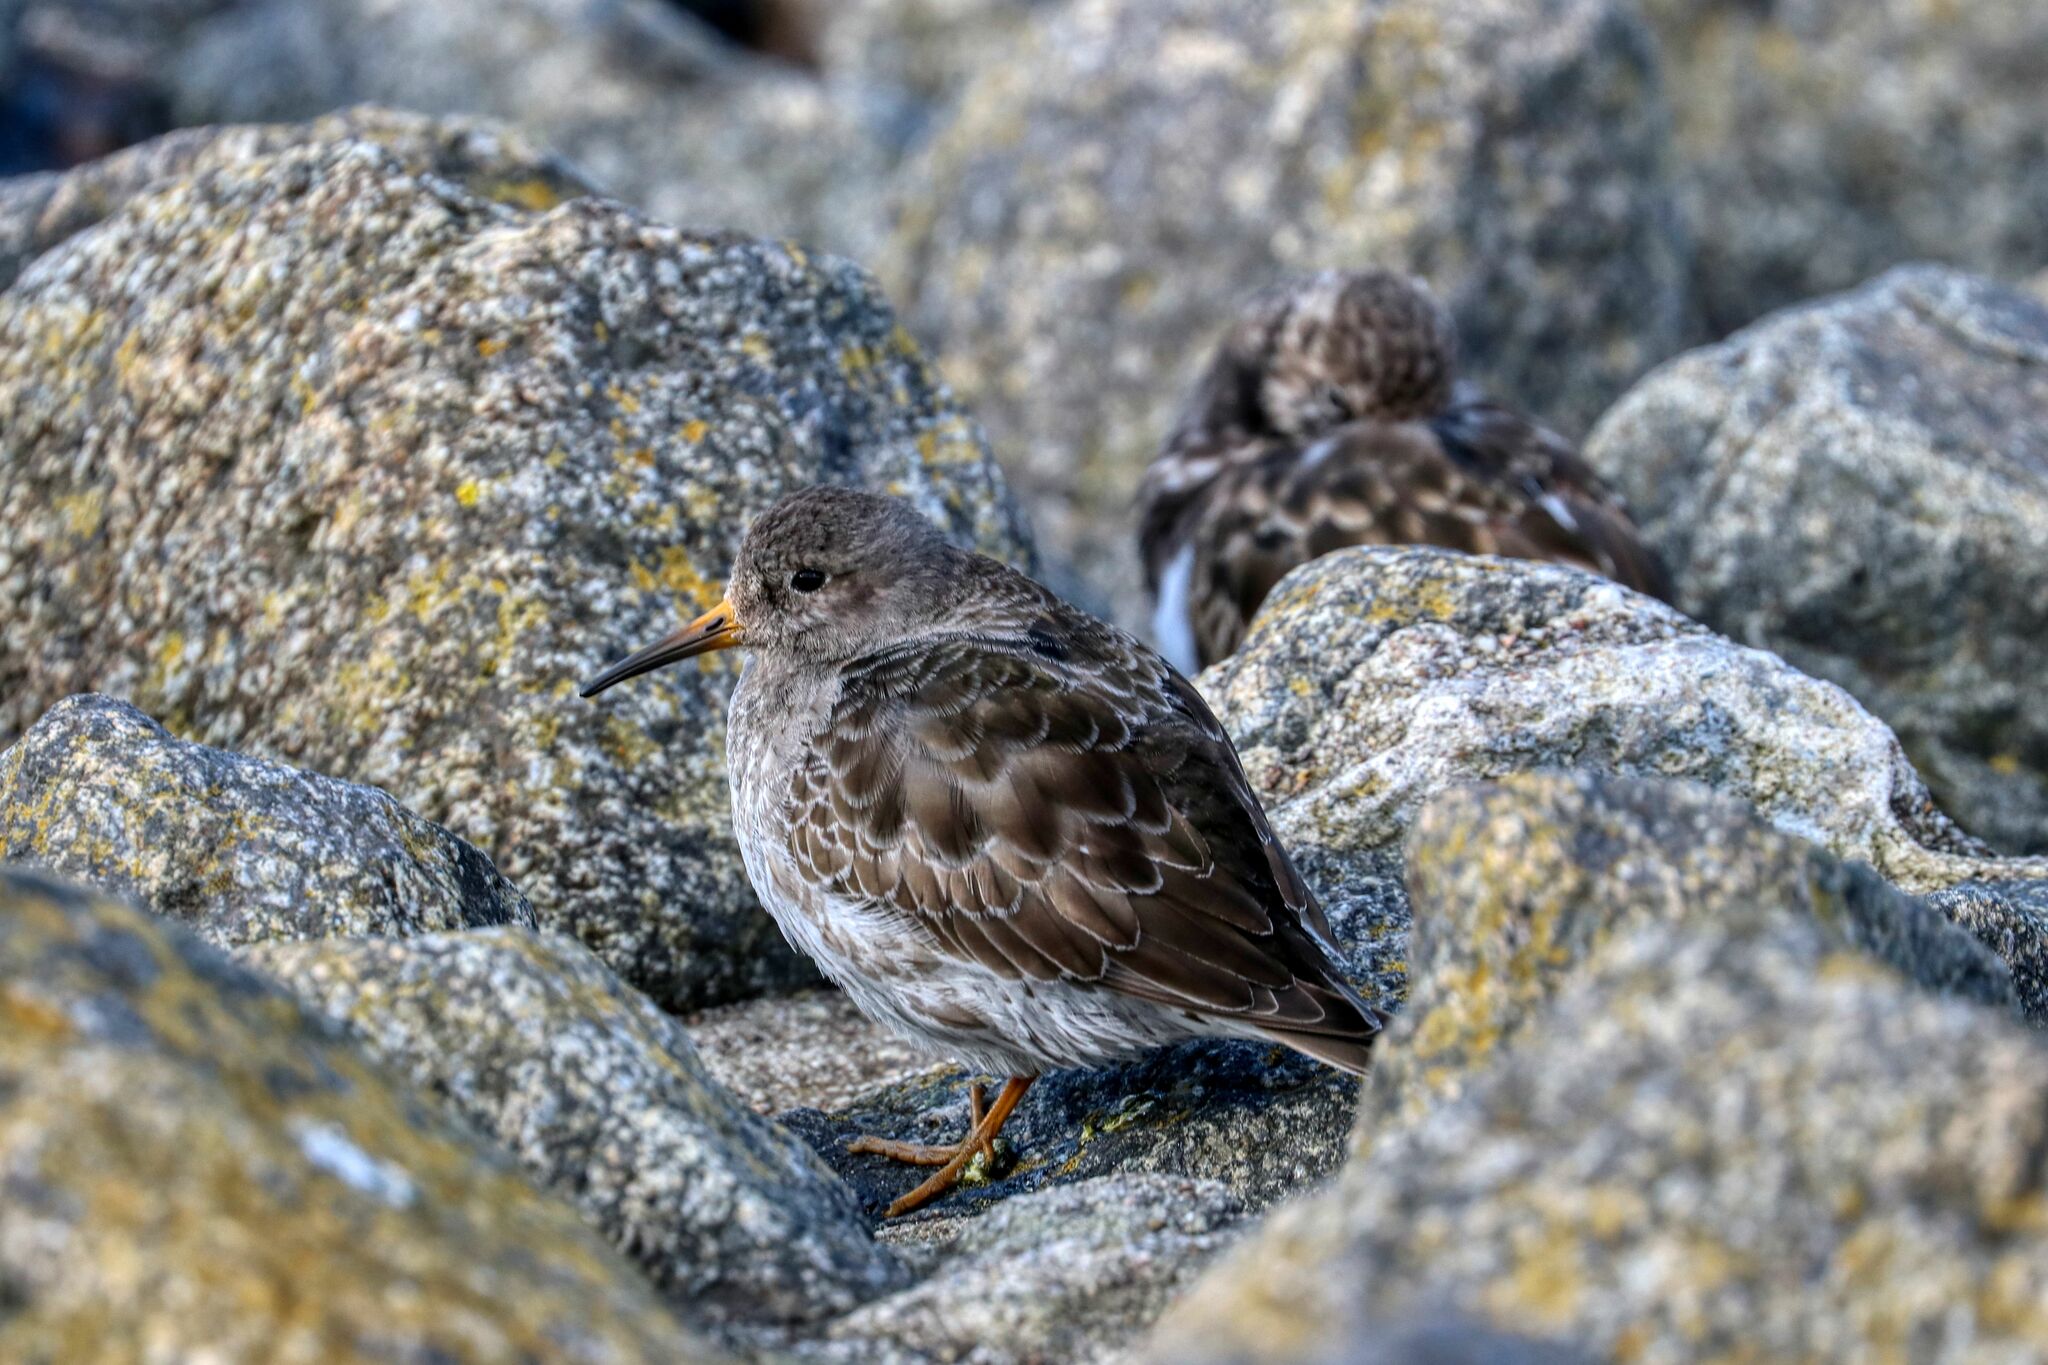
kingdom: Animalia
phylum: Chordata
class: Aves
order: Charadriiformes
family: Scolopacidae
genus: Calidris
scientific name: Calidris maritima
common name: Purple sandpiper
